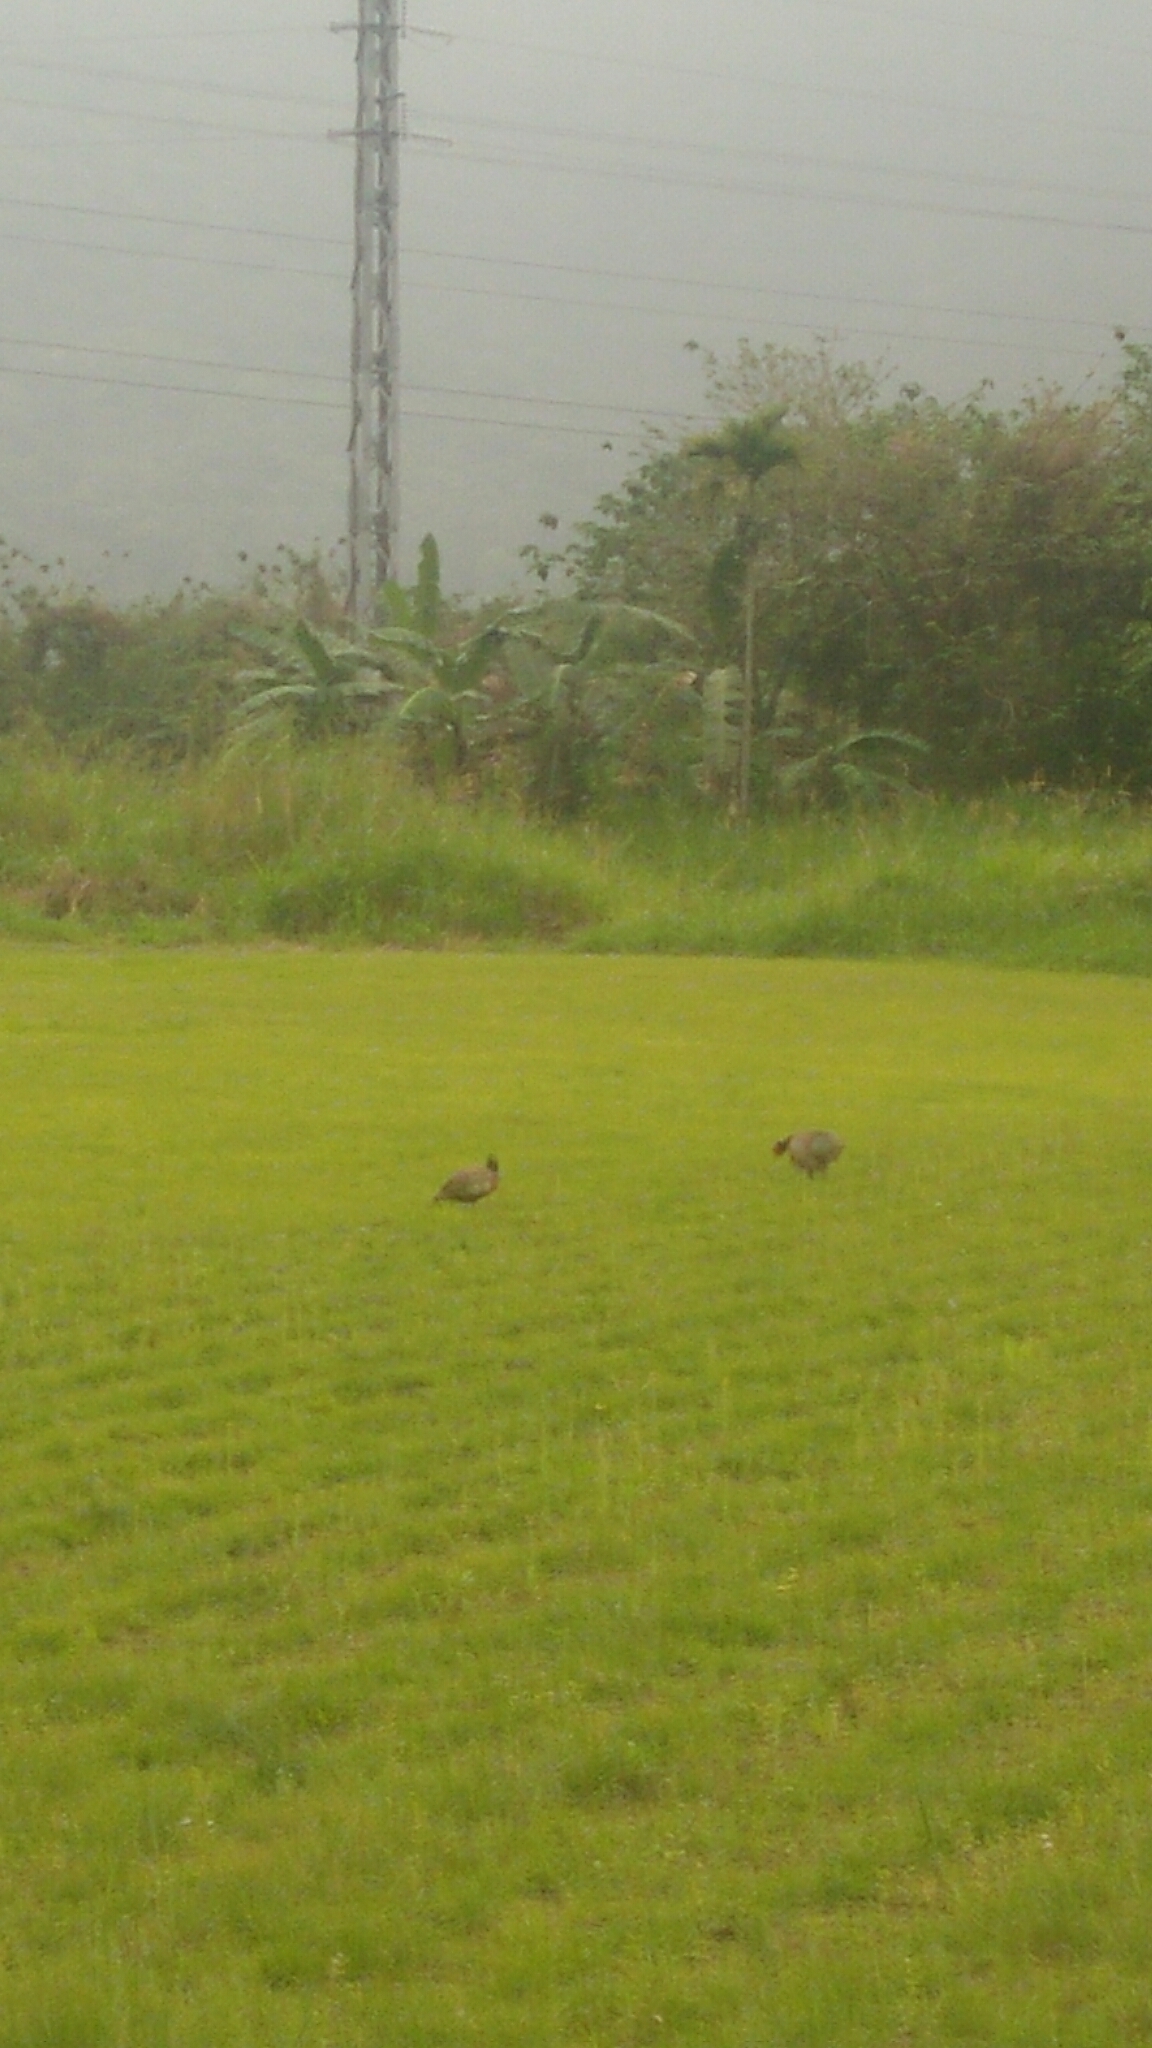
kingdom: Animalia
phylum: Chordata
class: Aves
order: Galliformes
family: Phasianidae
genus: Phasianus
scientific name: Phasianus colchicus
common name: Common pheasant
